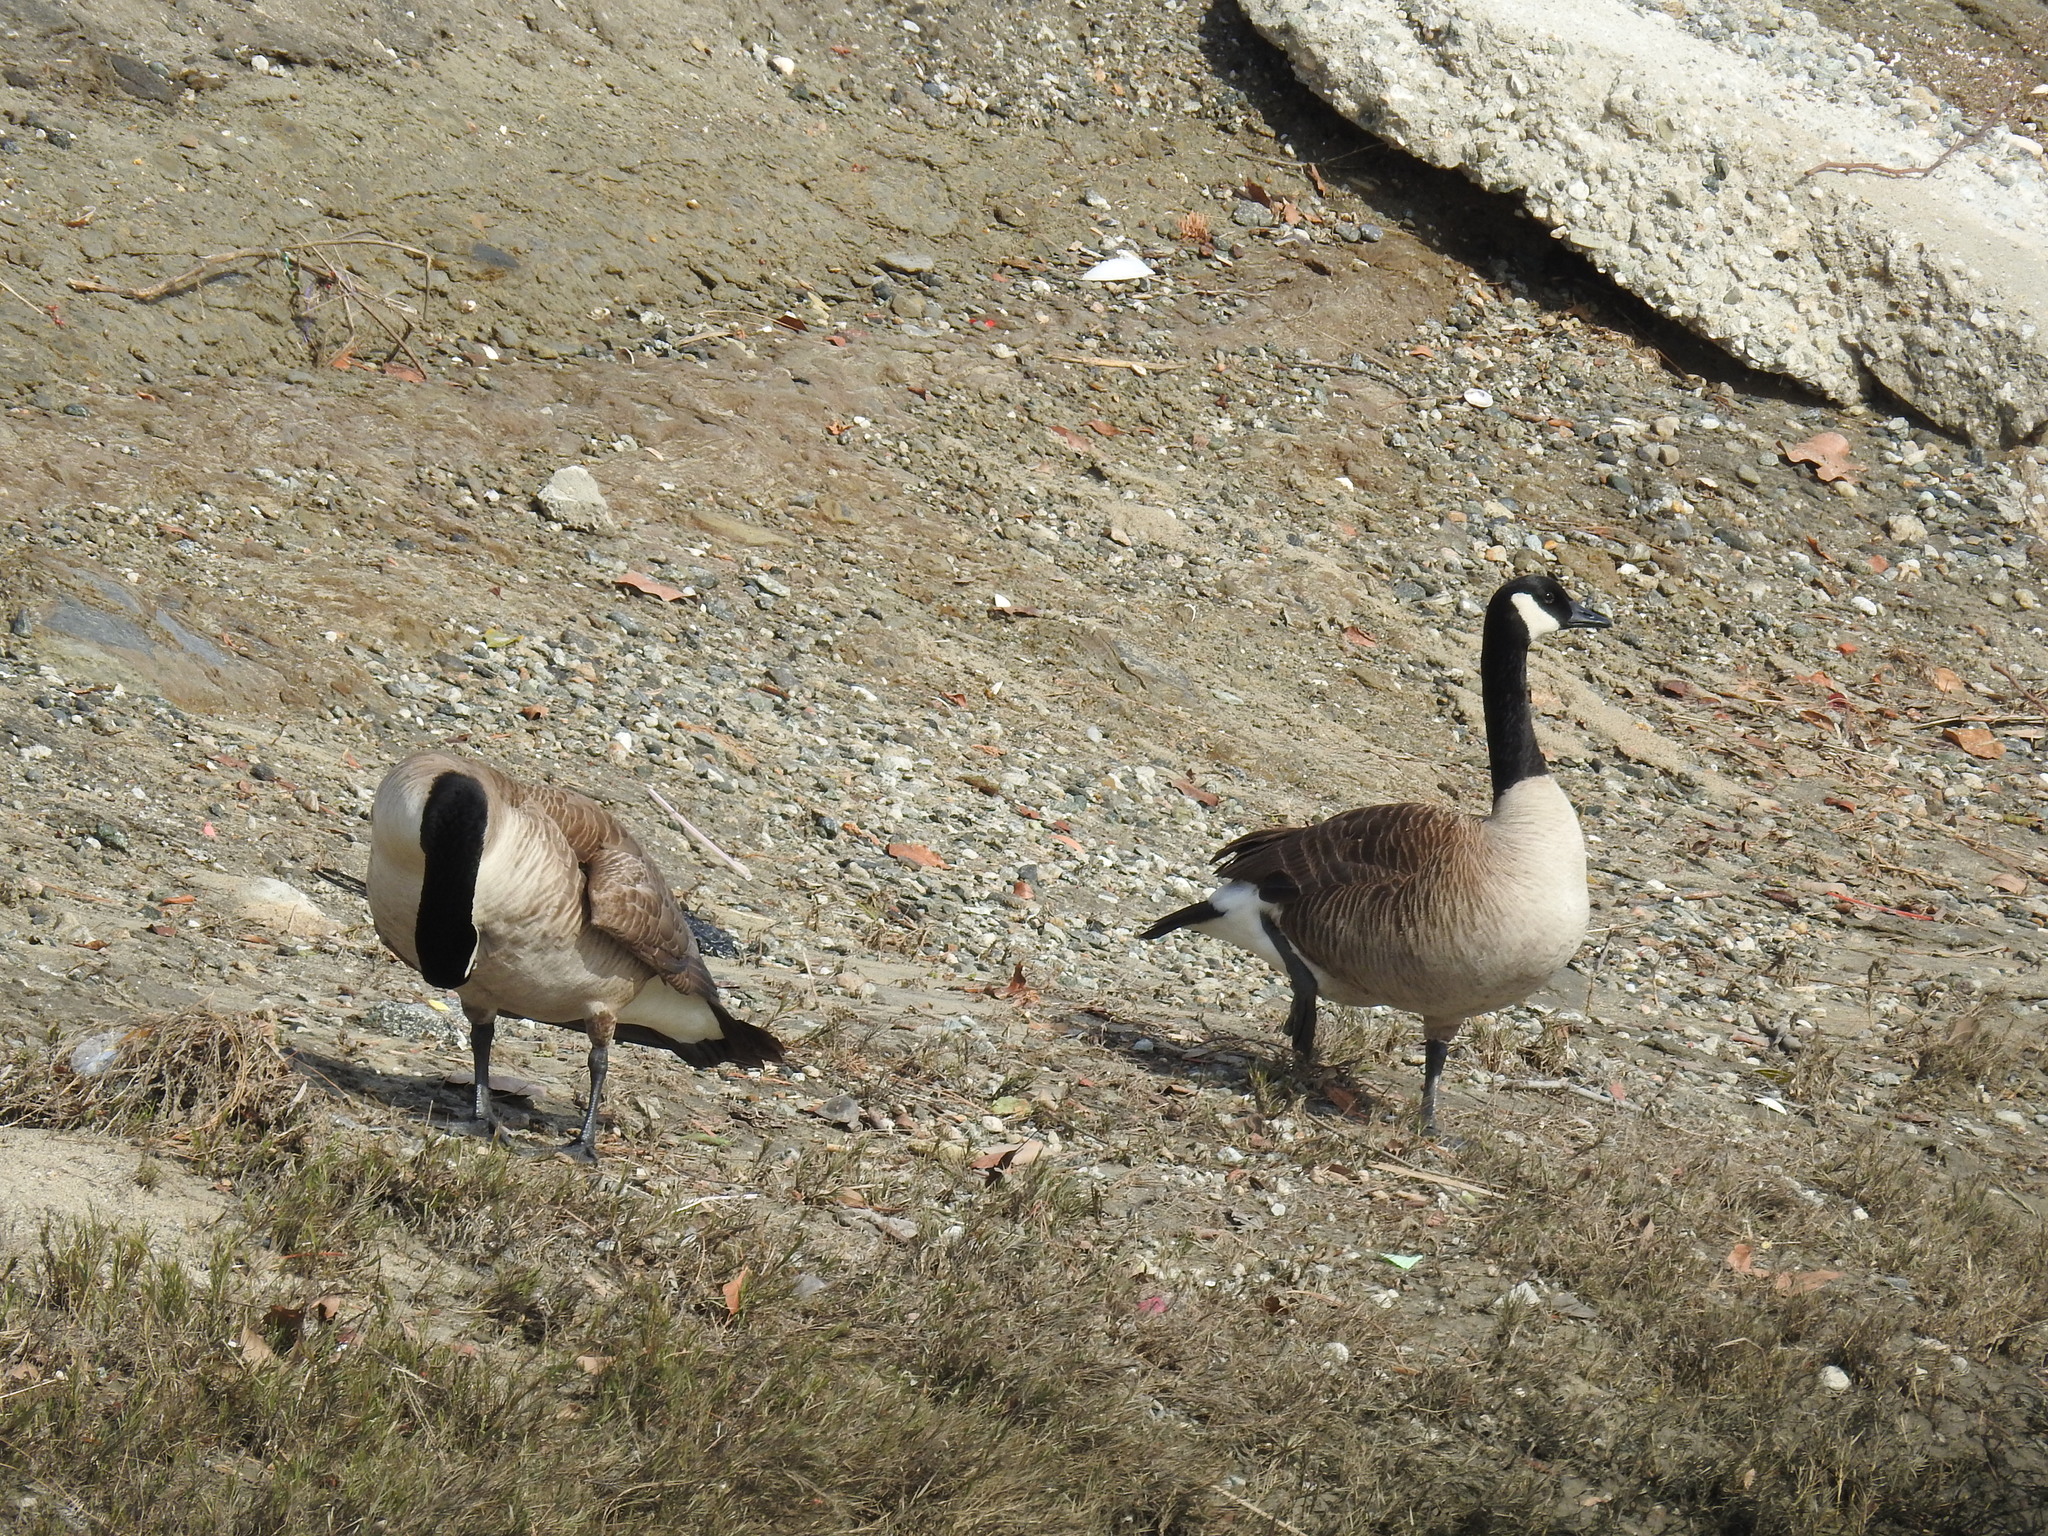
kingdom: Animalia
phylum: Chordata
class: Aves
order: Anseriformes
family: Anatidae
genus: Branta
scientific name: Branta canadensis
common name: Canada goose
